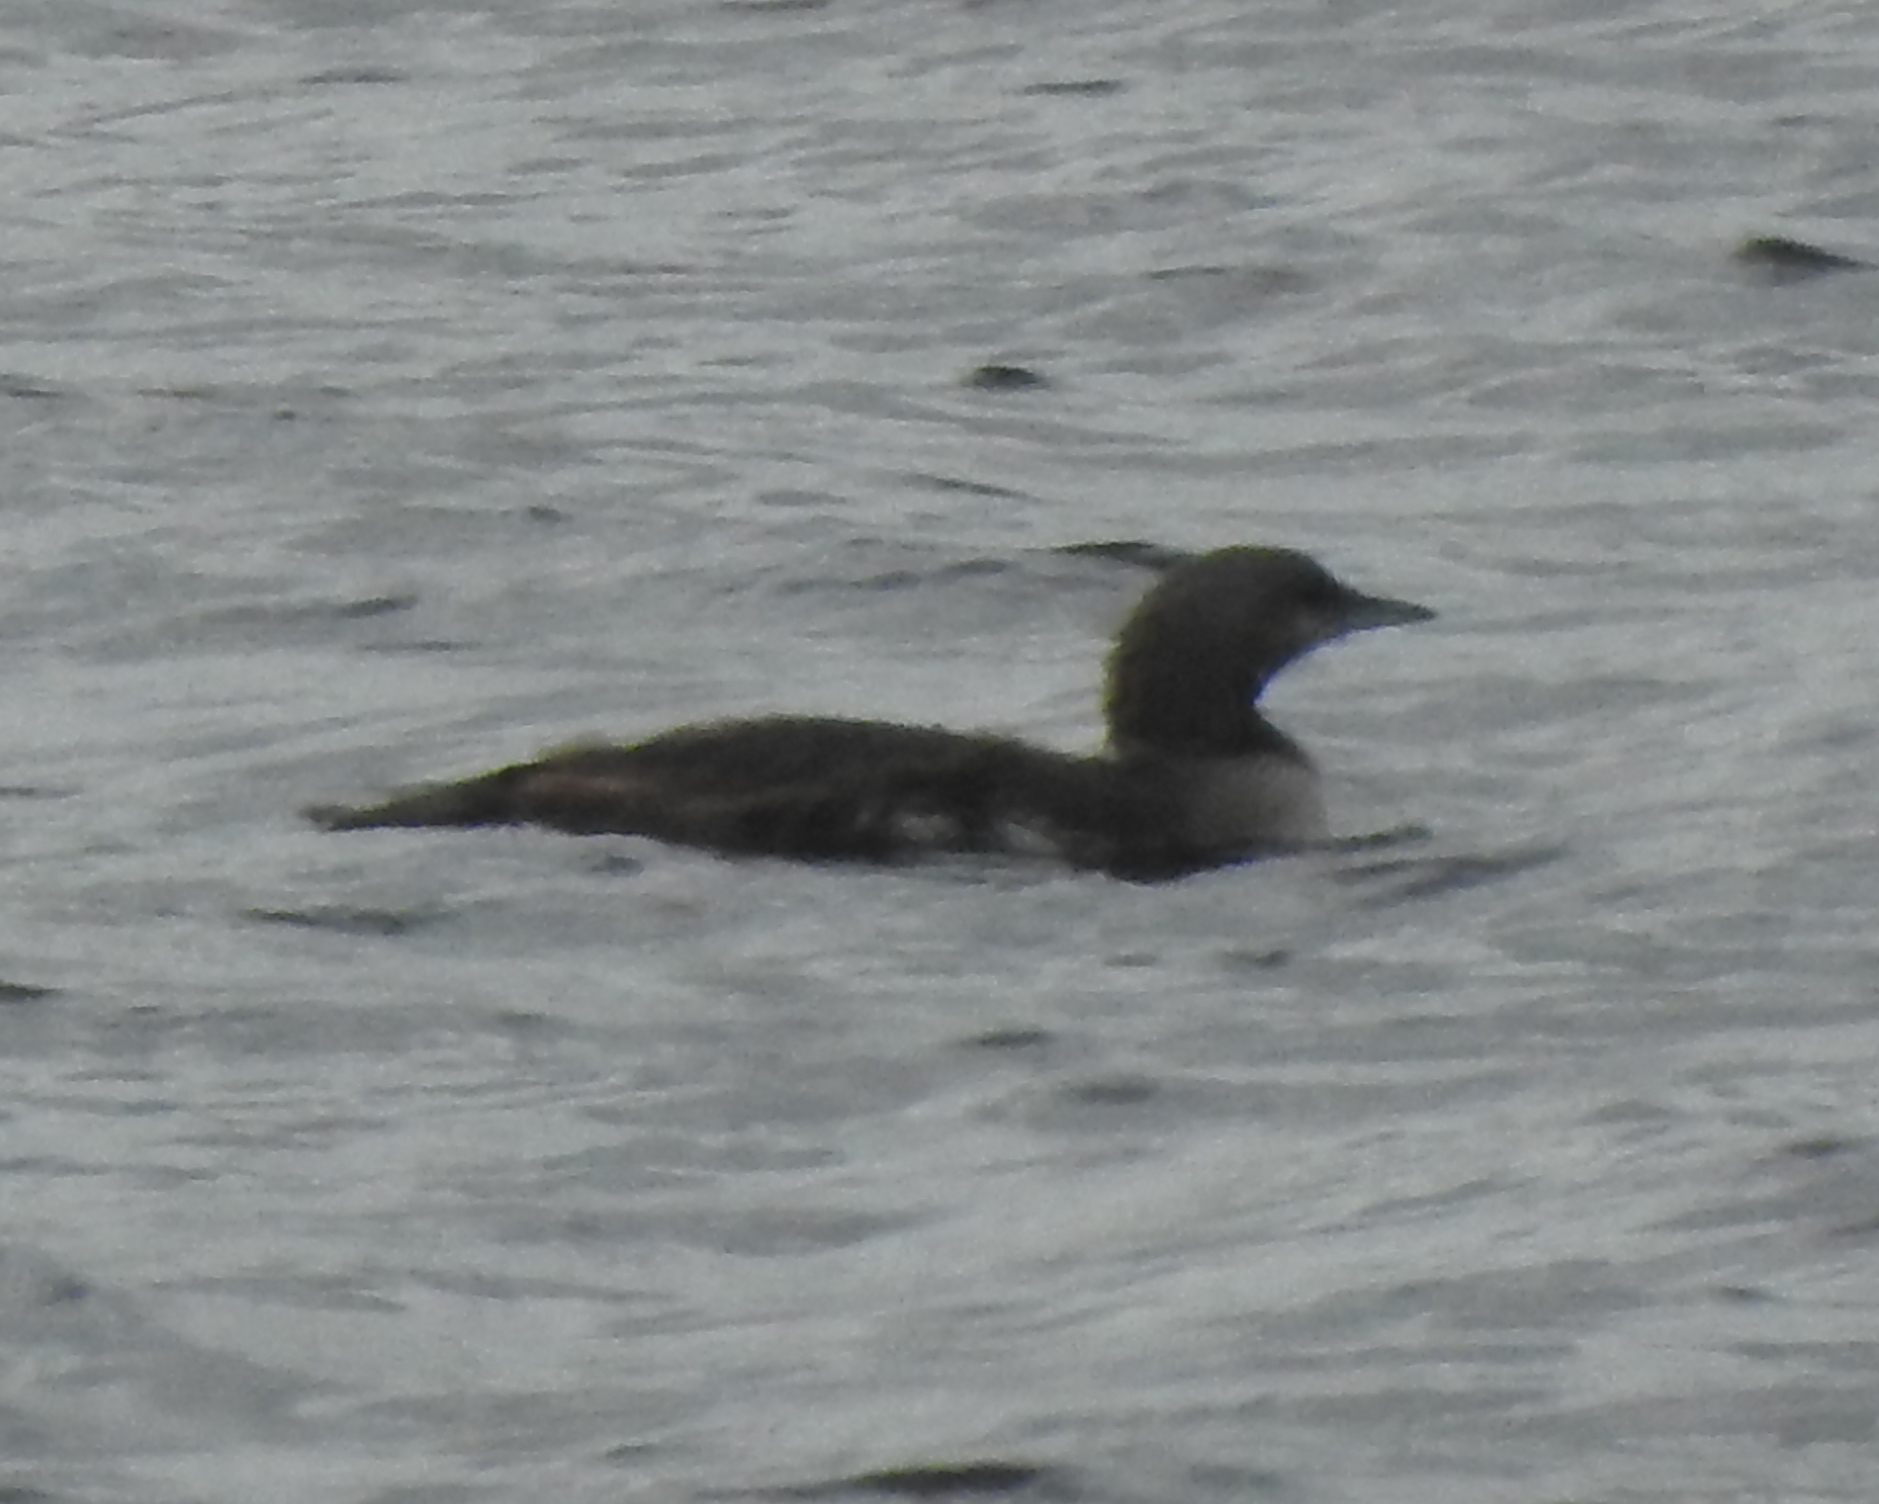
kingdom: Animalia
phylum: Chordata
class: Aves
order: Gaviiformes
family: Gaviidae
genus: Gavia
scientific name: Gavia arctica
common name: Black-throated loon
